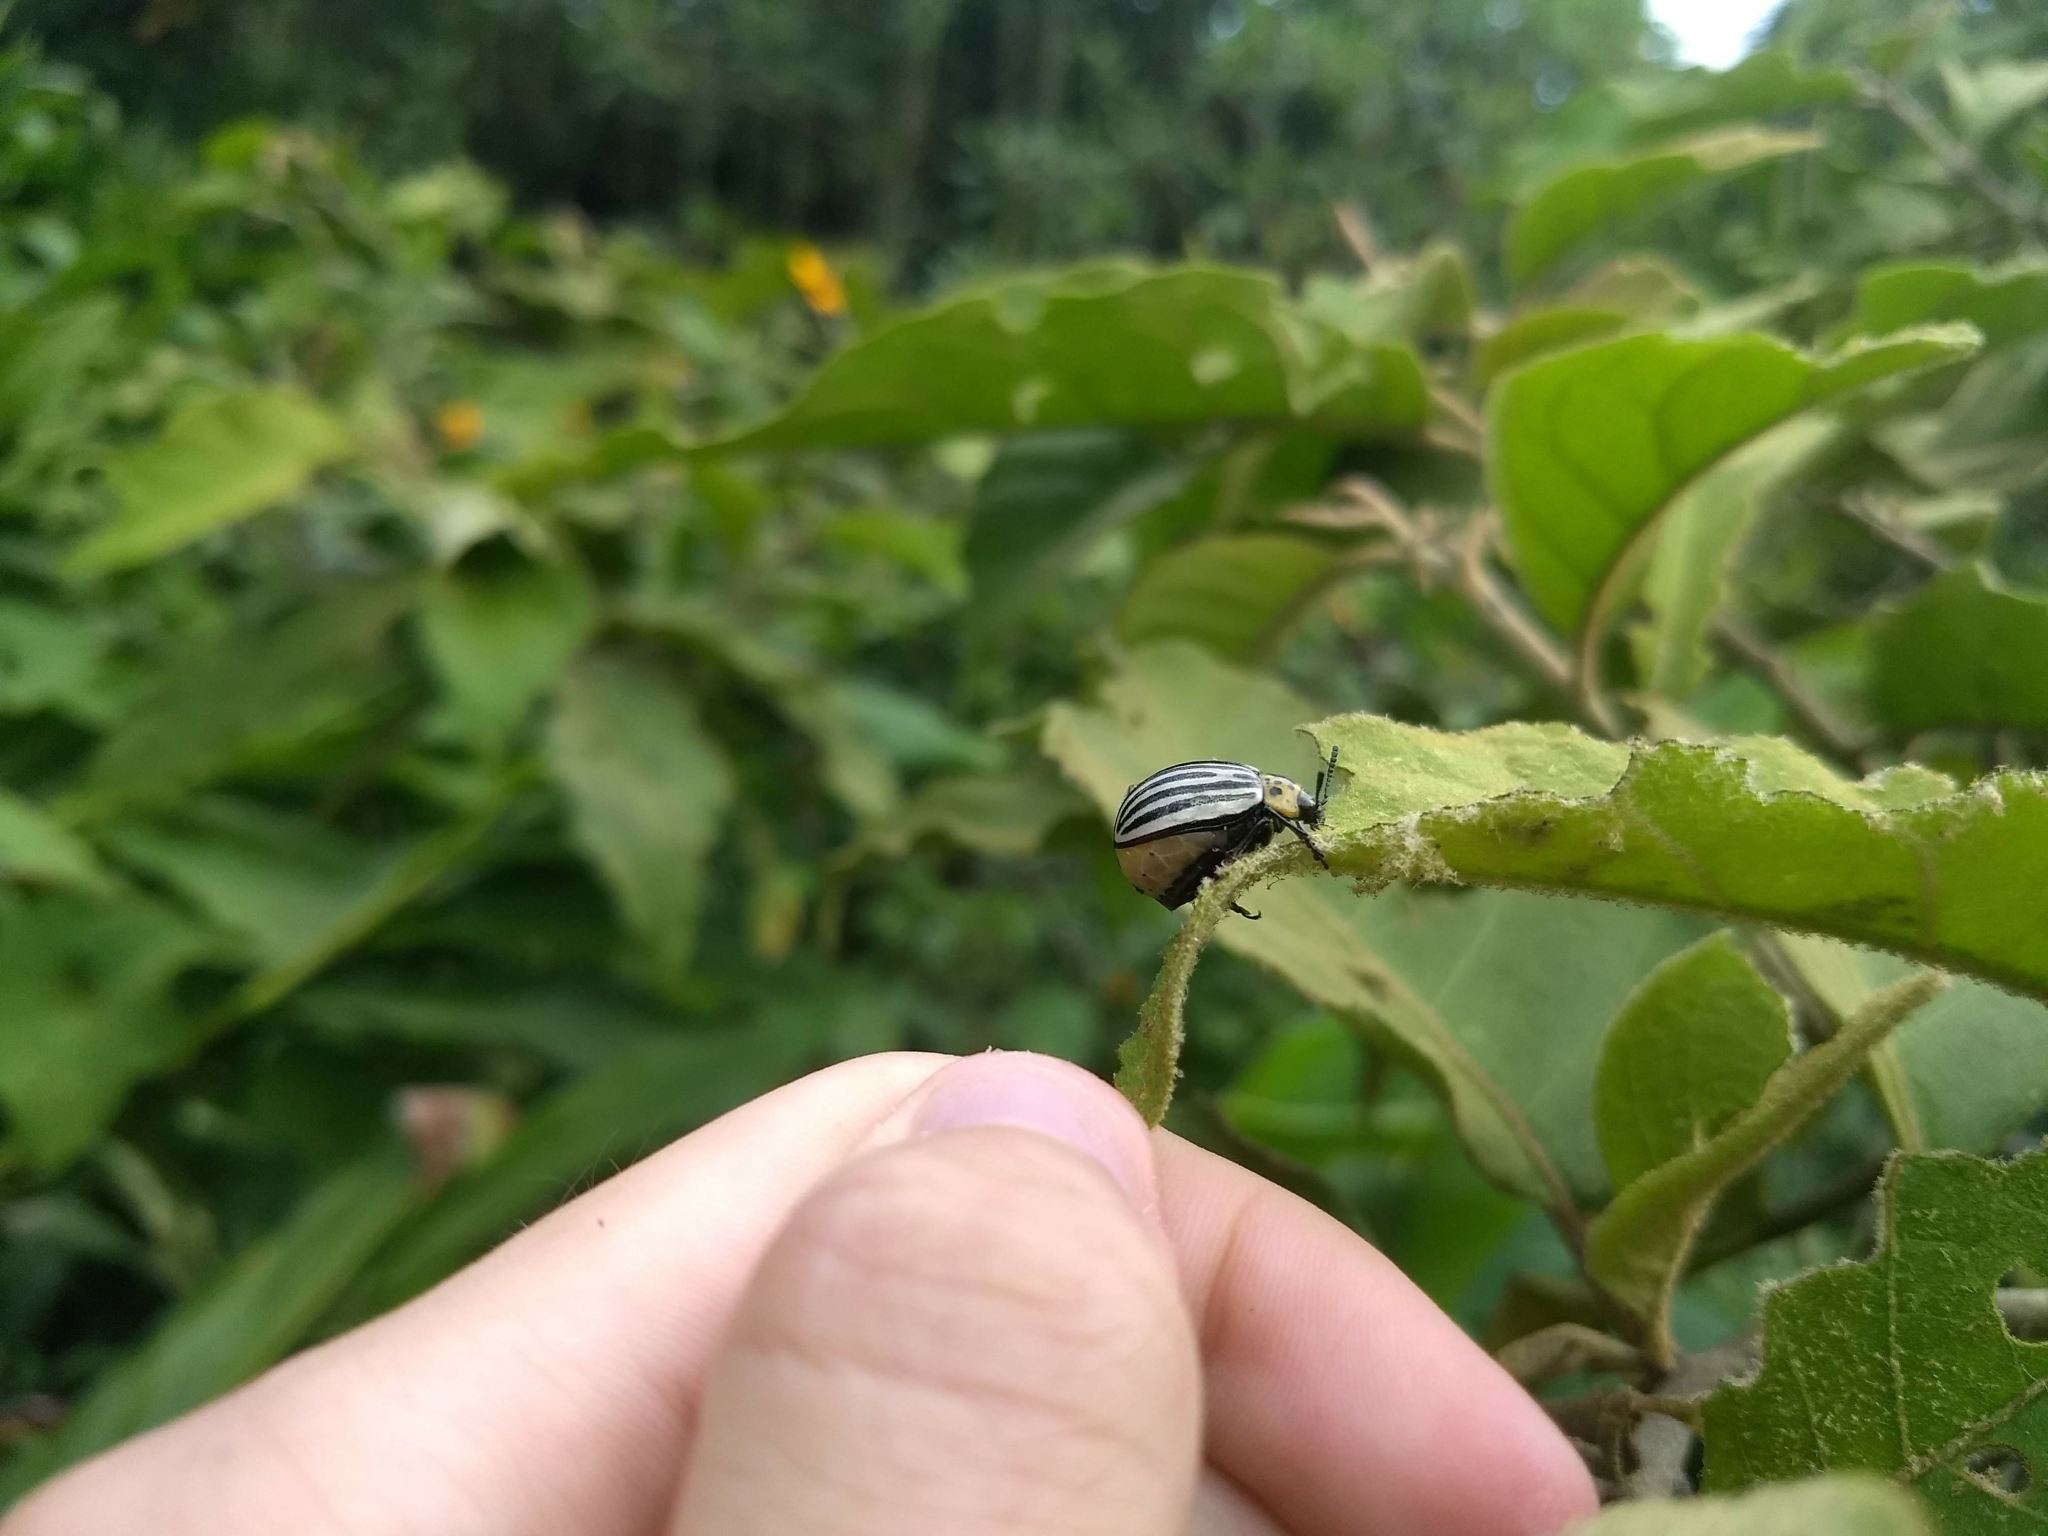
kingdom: Animalia
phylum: Arthropoda
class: Insecta
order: Coleoptera
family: Chrysomelidae
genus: Leptinotarsa
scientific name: Leptinotarsa
